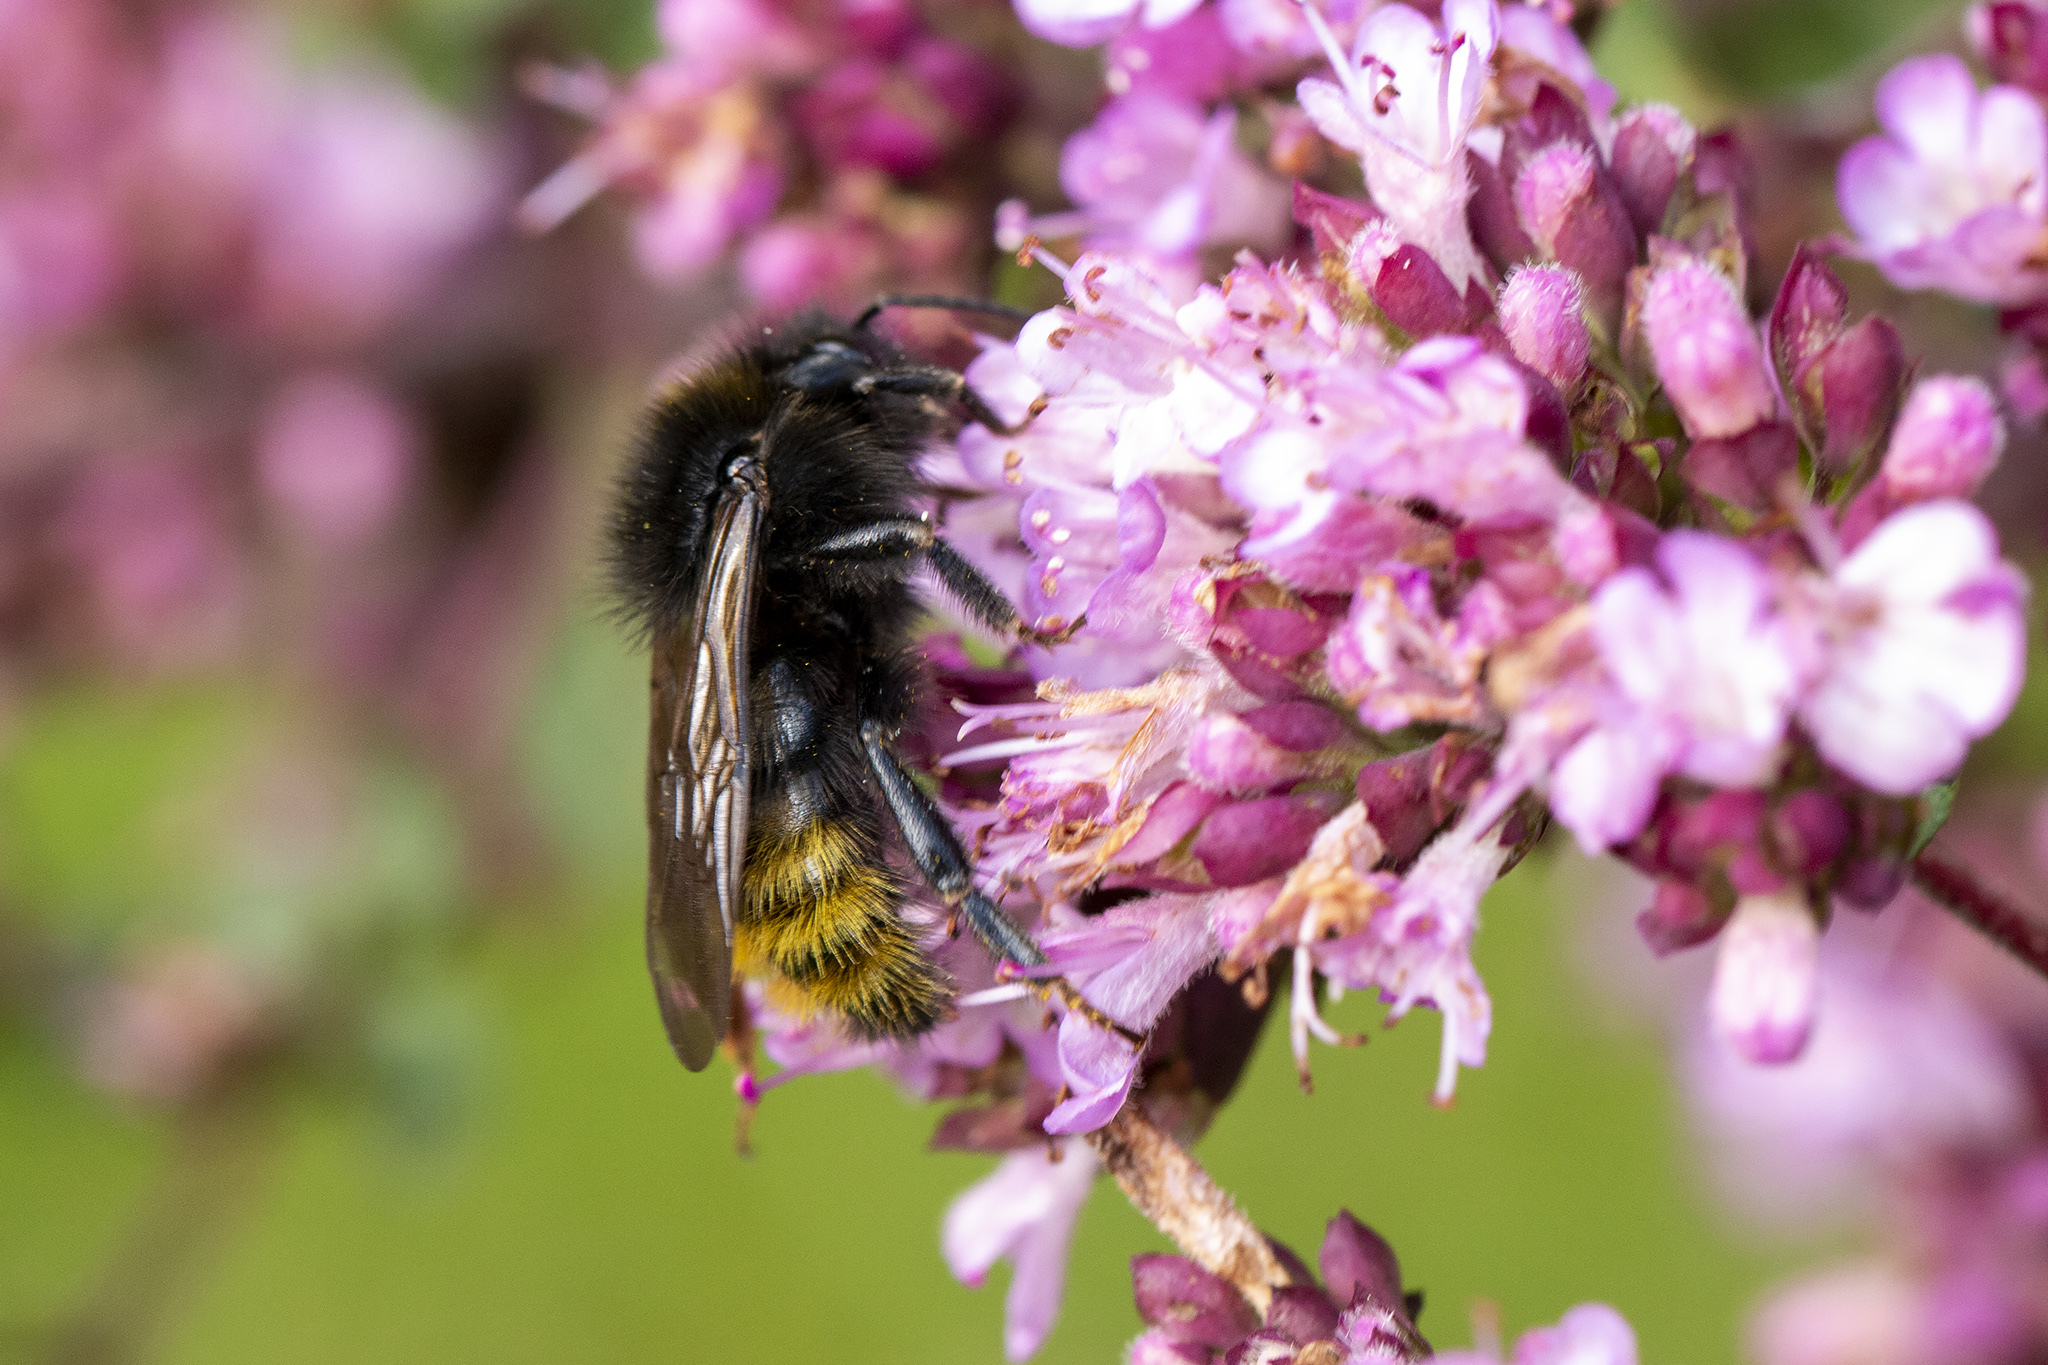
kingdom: Animalia
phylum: Arthropoda
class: Insecta
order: Hymenoptera
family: Apidae
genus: Bombus
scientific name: Bombus campestris
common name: Field cuckoo-bee
